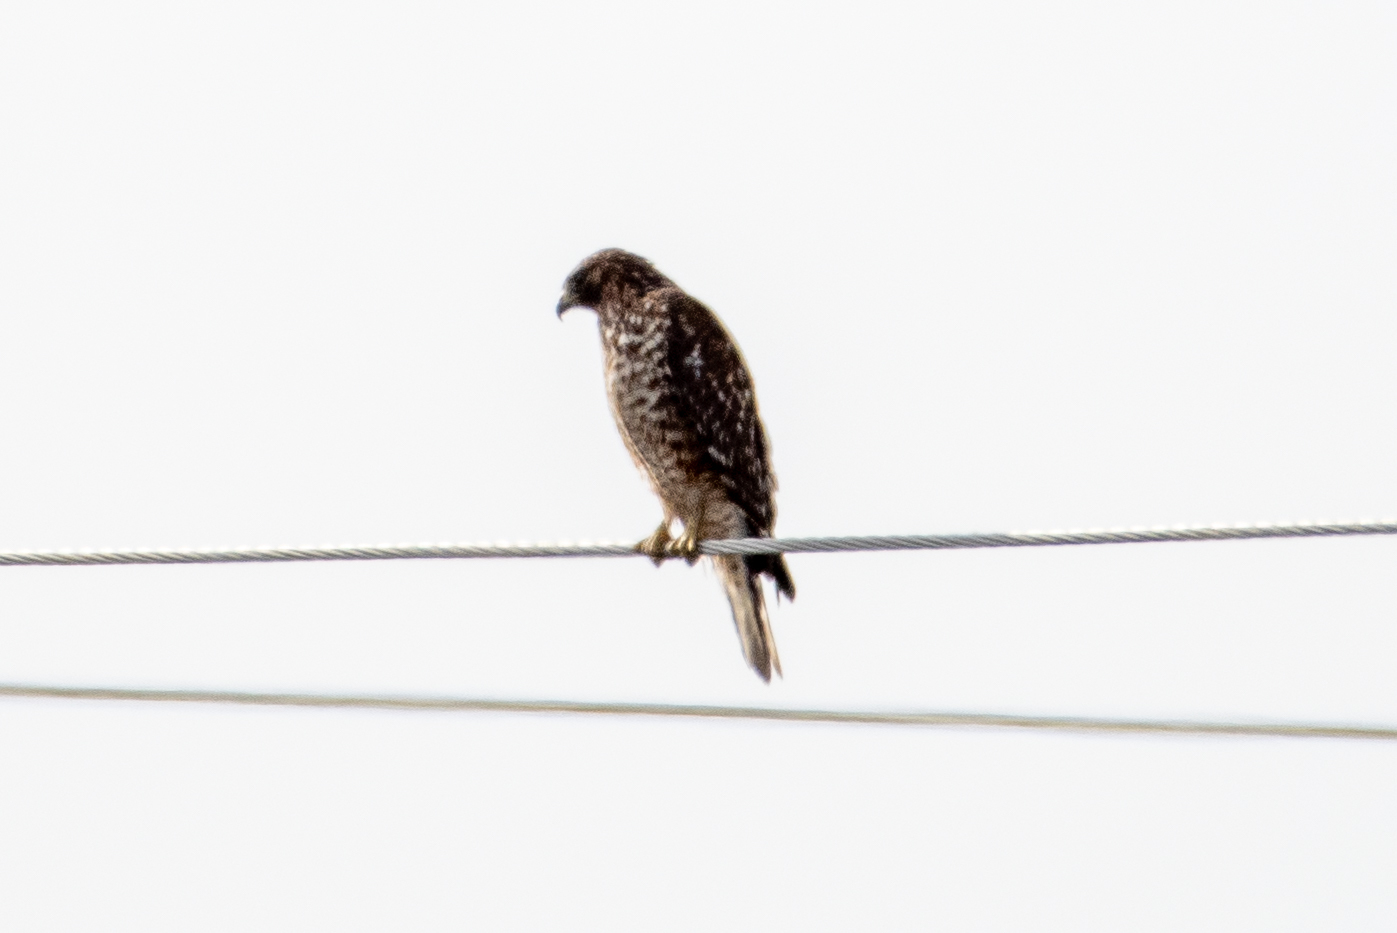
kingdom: Animalia
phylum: Chordata
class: Aves
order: Accipitriformes
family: Accipitridae
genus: Buteo
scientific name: Buteo lineatus
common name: Red-shouldered hawk
